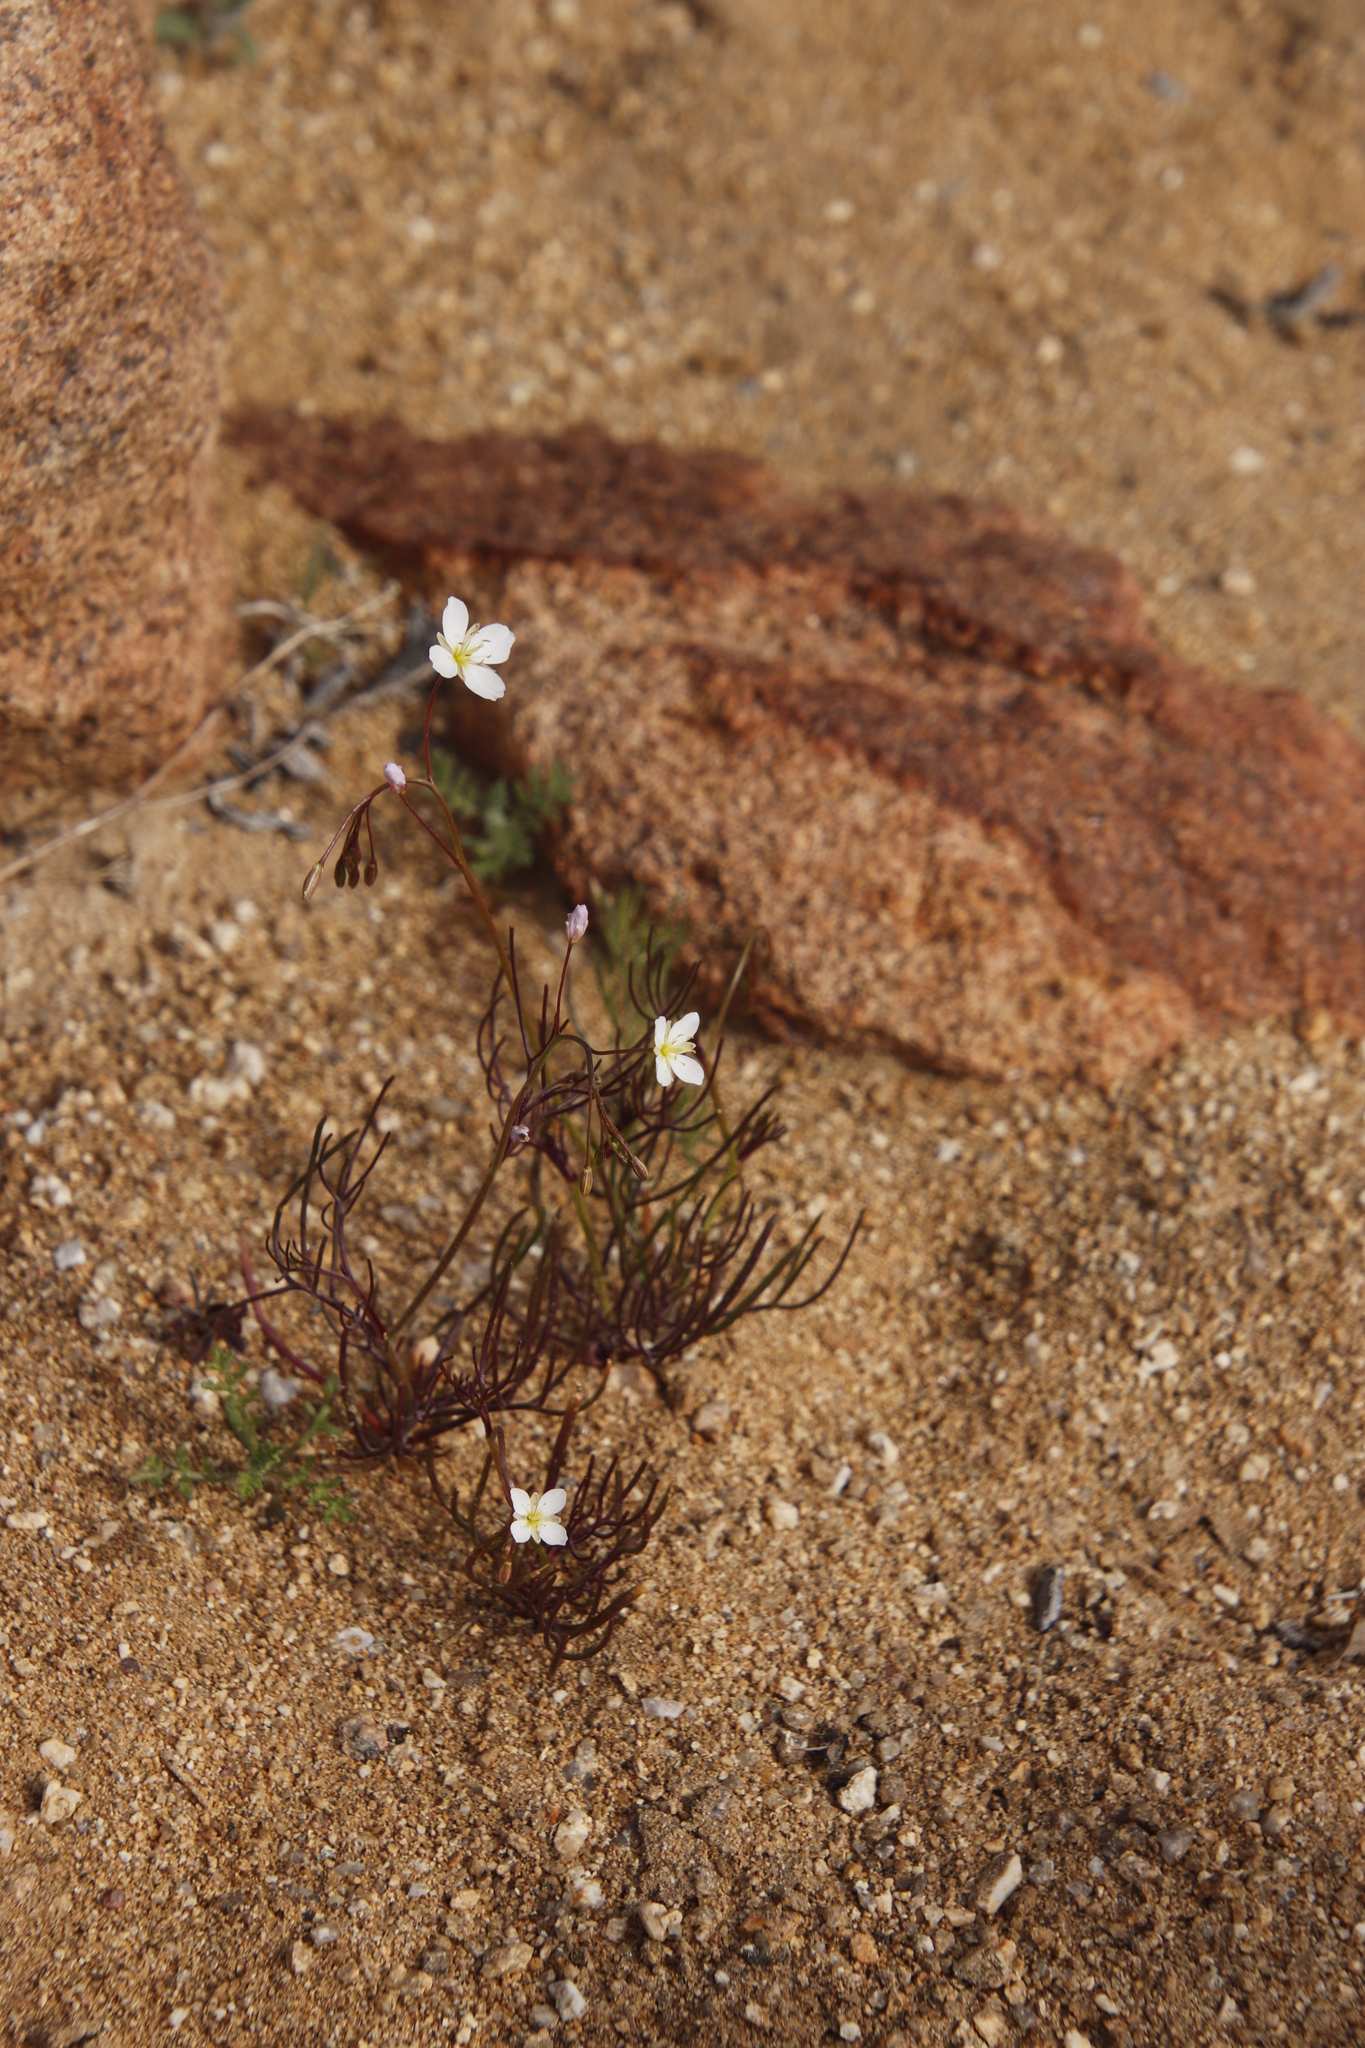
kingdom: Plantae
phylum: Tracheophyta
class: Magnoliopsida
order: Brassicales
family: Brassicaceae
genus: Heliophila
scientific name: Heliophila variabilis
